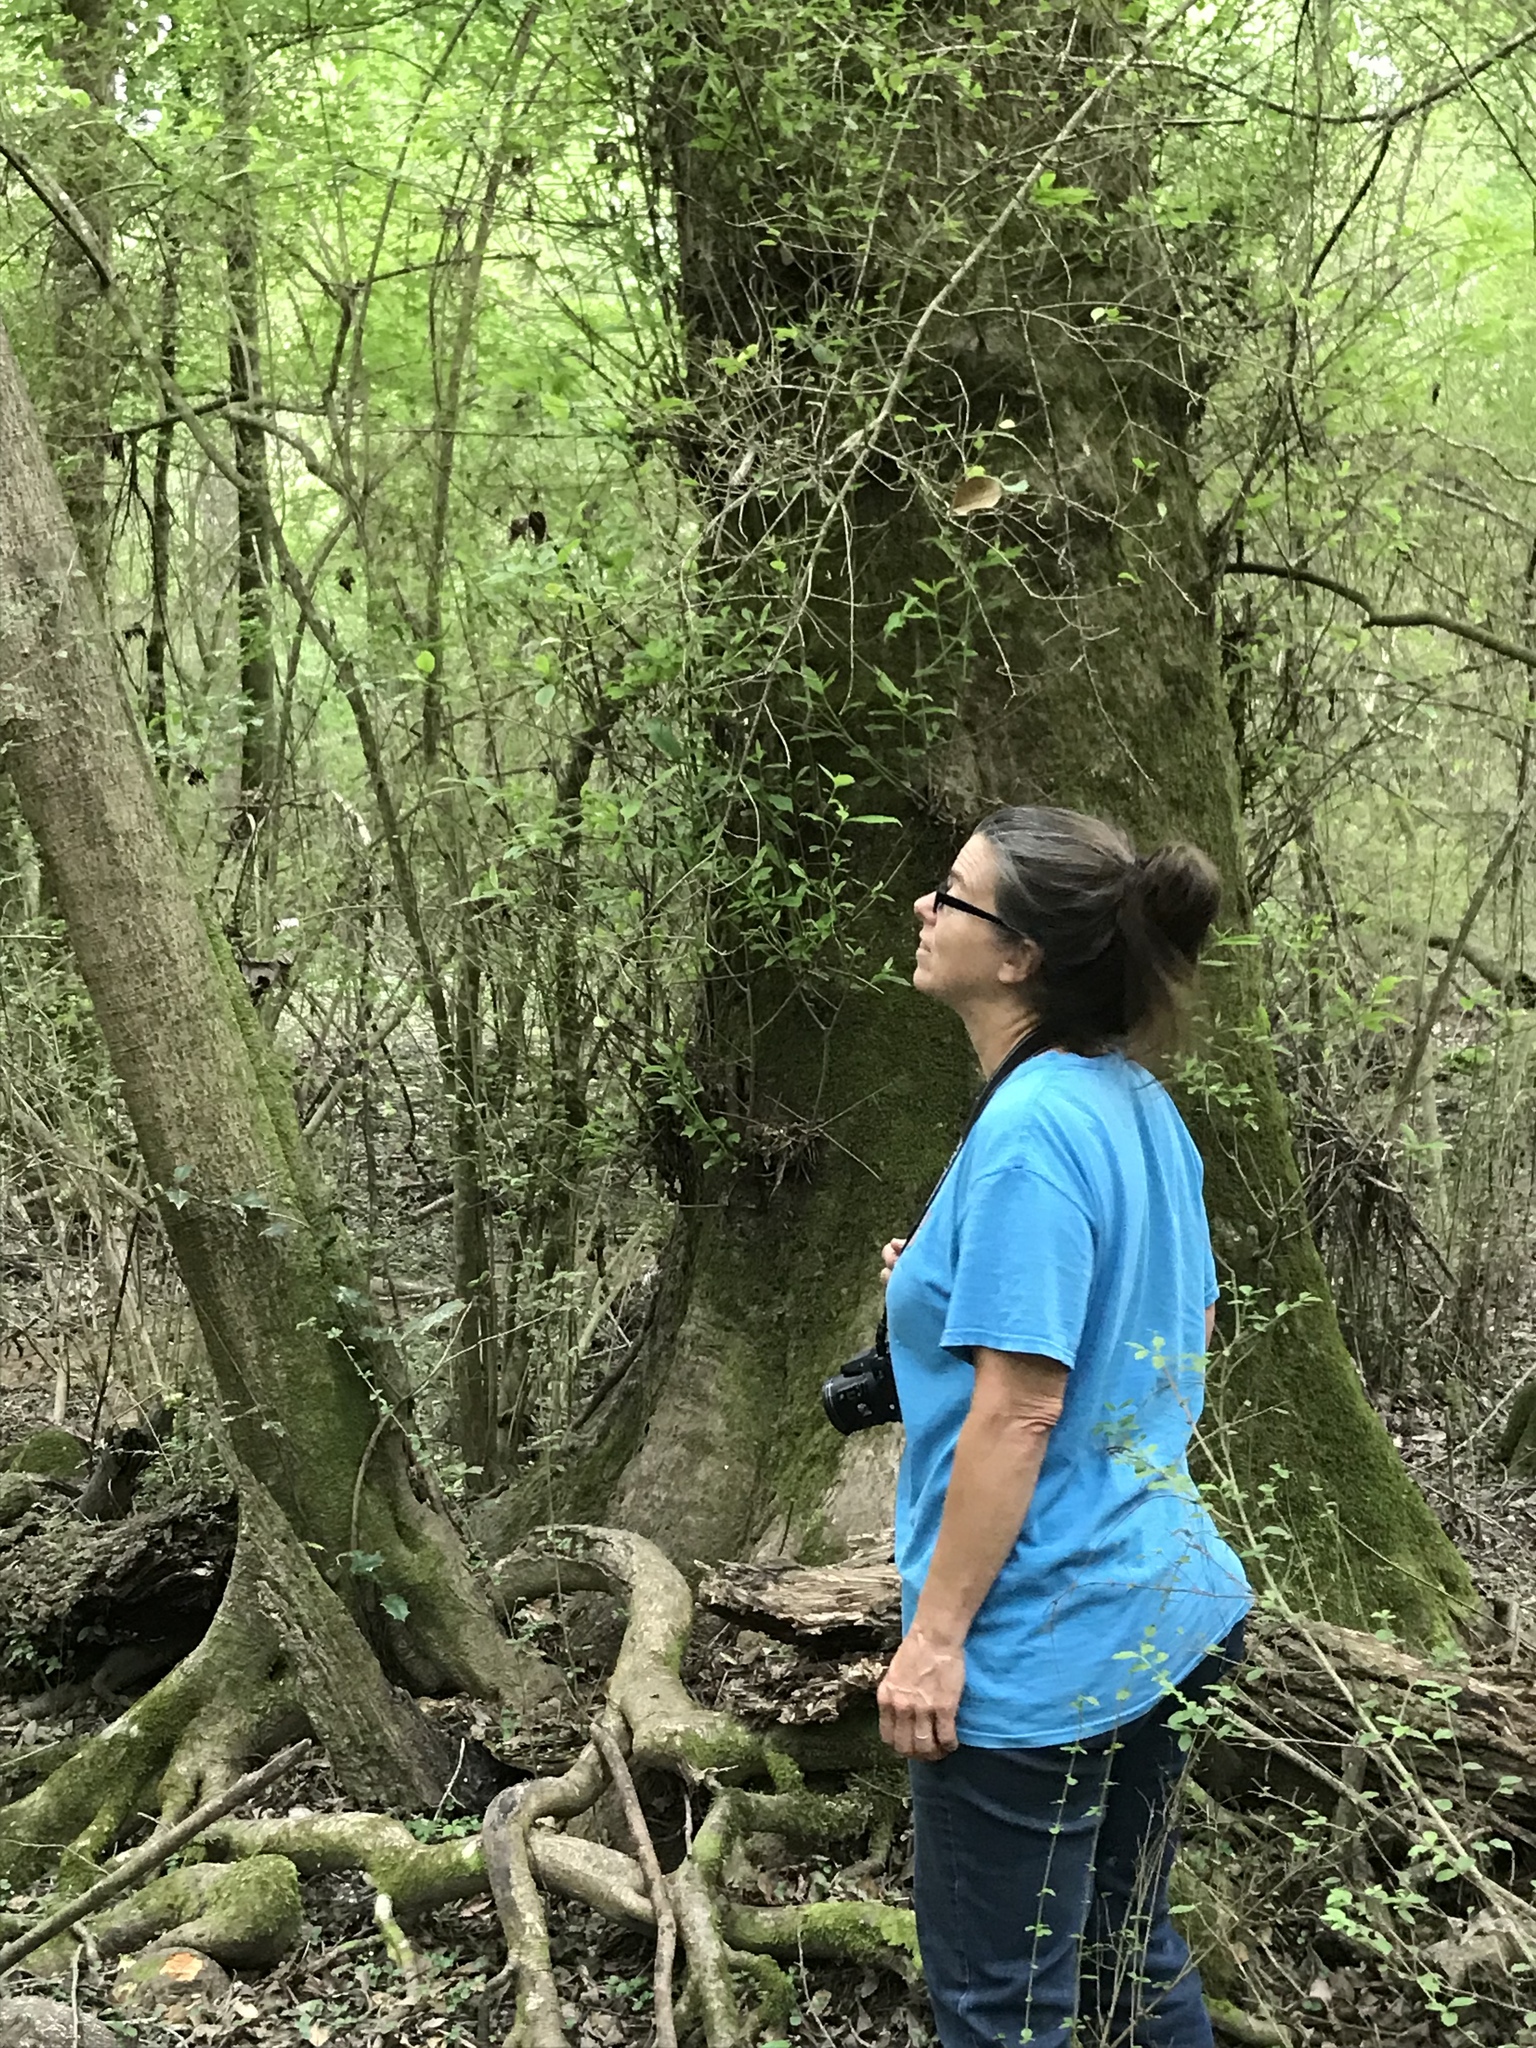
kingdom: Plantae
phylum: Tracheophyta
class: Magnoliopsida
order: Cornales
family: Nyssaceae
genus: Nyssa
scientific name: Nyssa sylvatica
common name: Black tupelo
